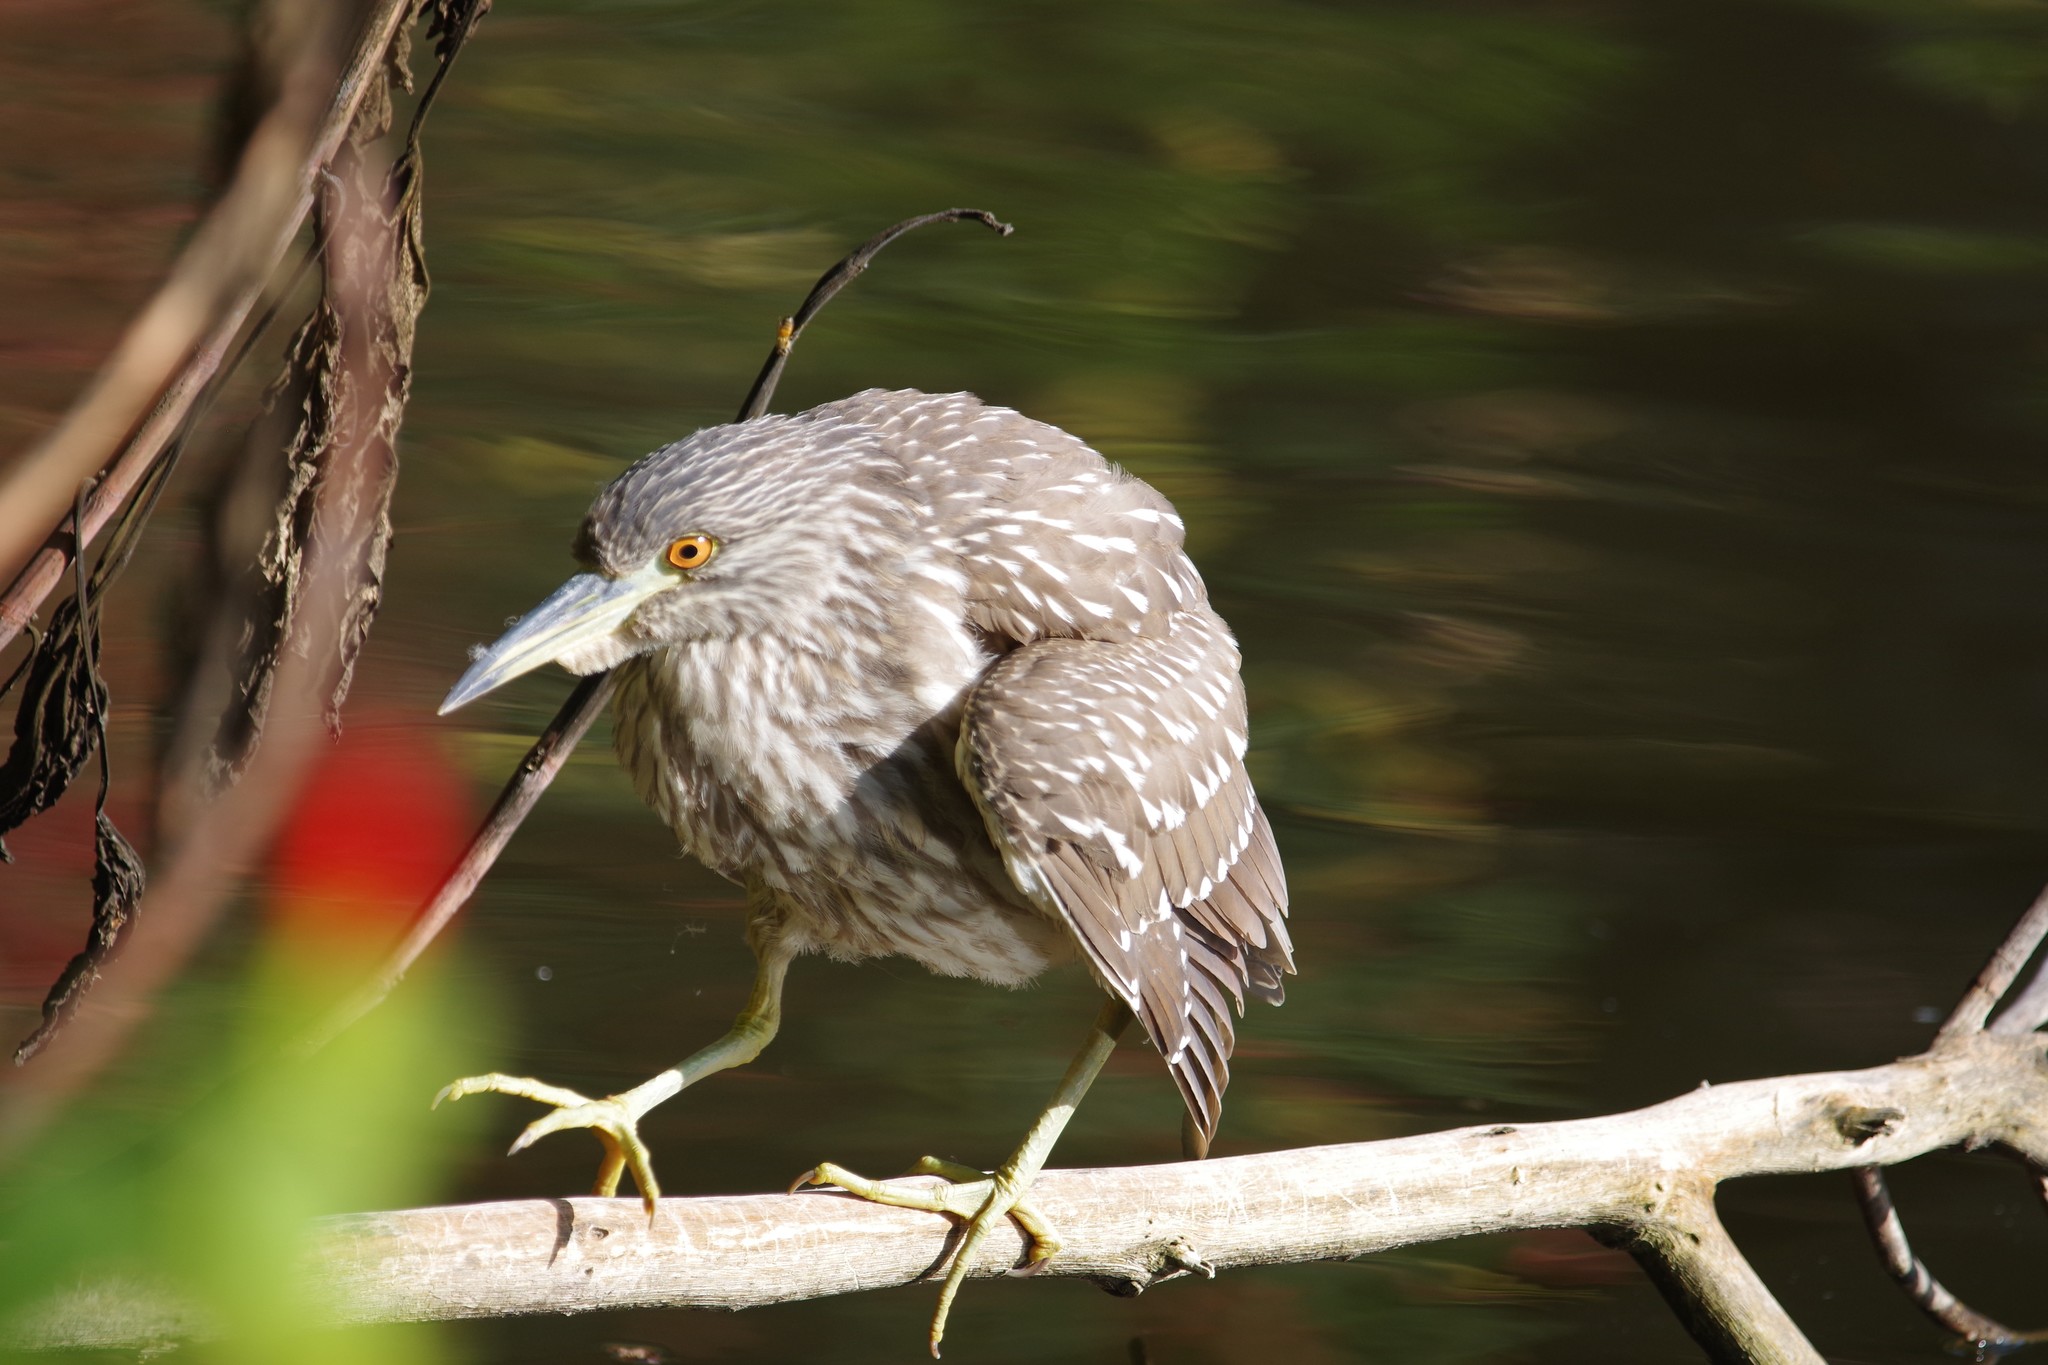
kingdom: Animalia
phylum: Chordata
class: Aves
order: Pelecaniformes
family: Ardeidae
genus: Nycticorax
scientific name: Nycticorax nycticorax
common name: Black-crowned night heron
